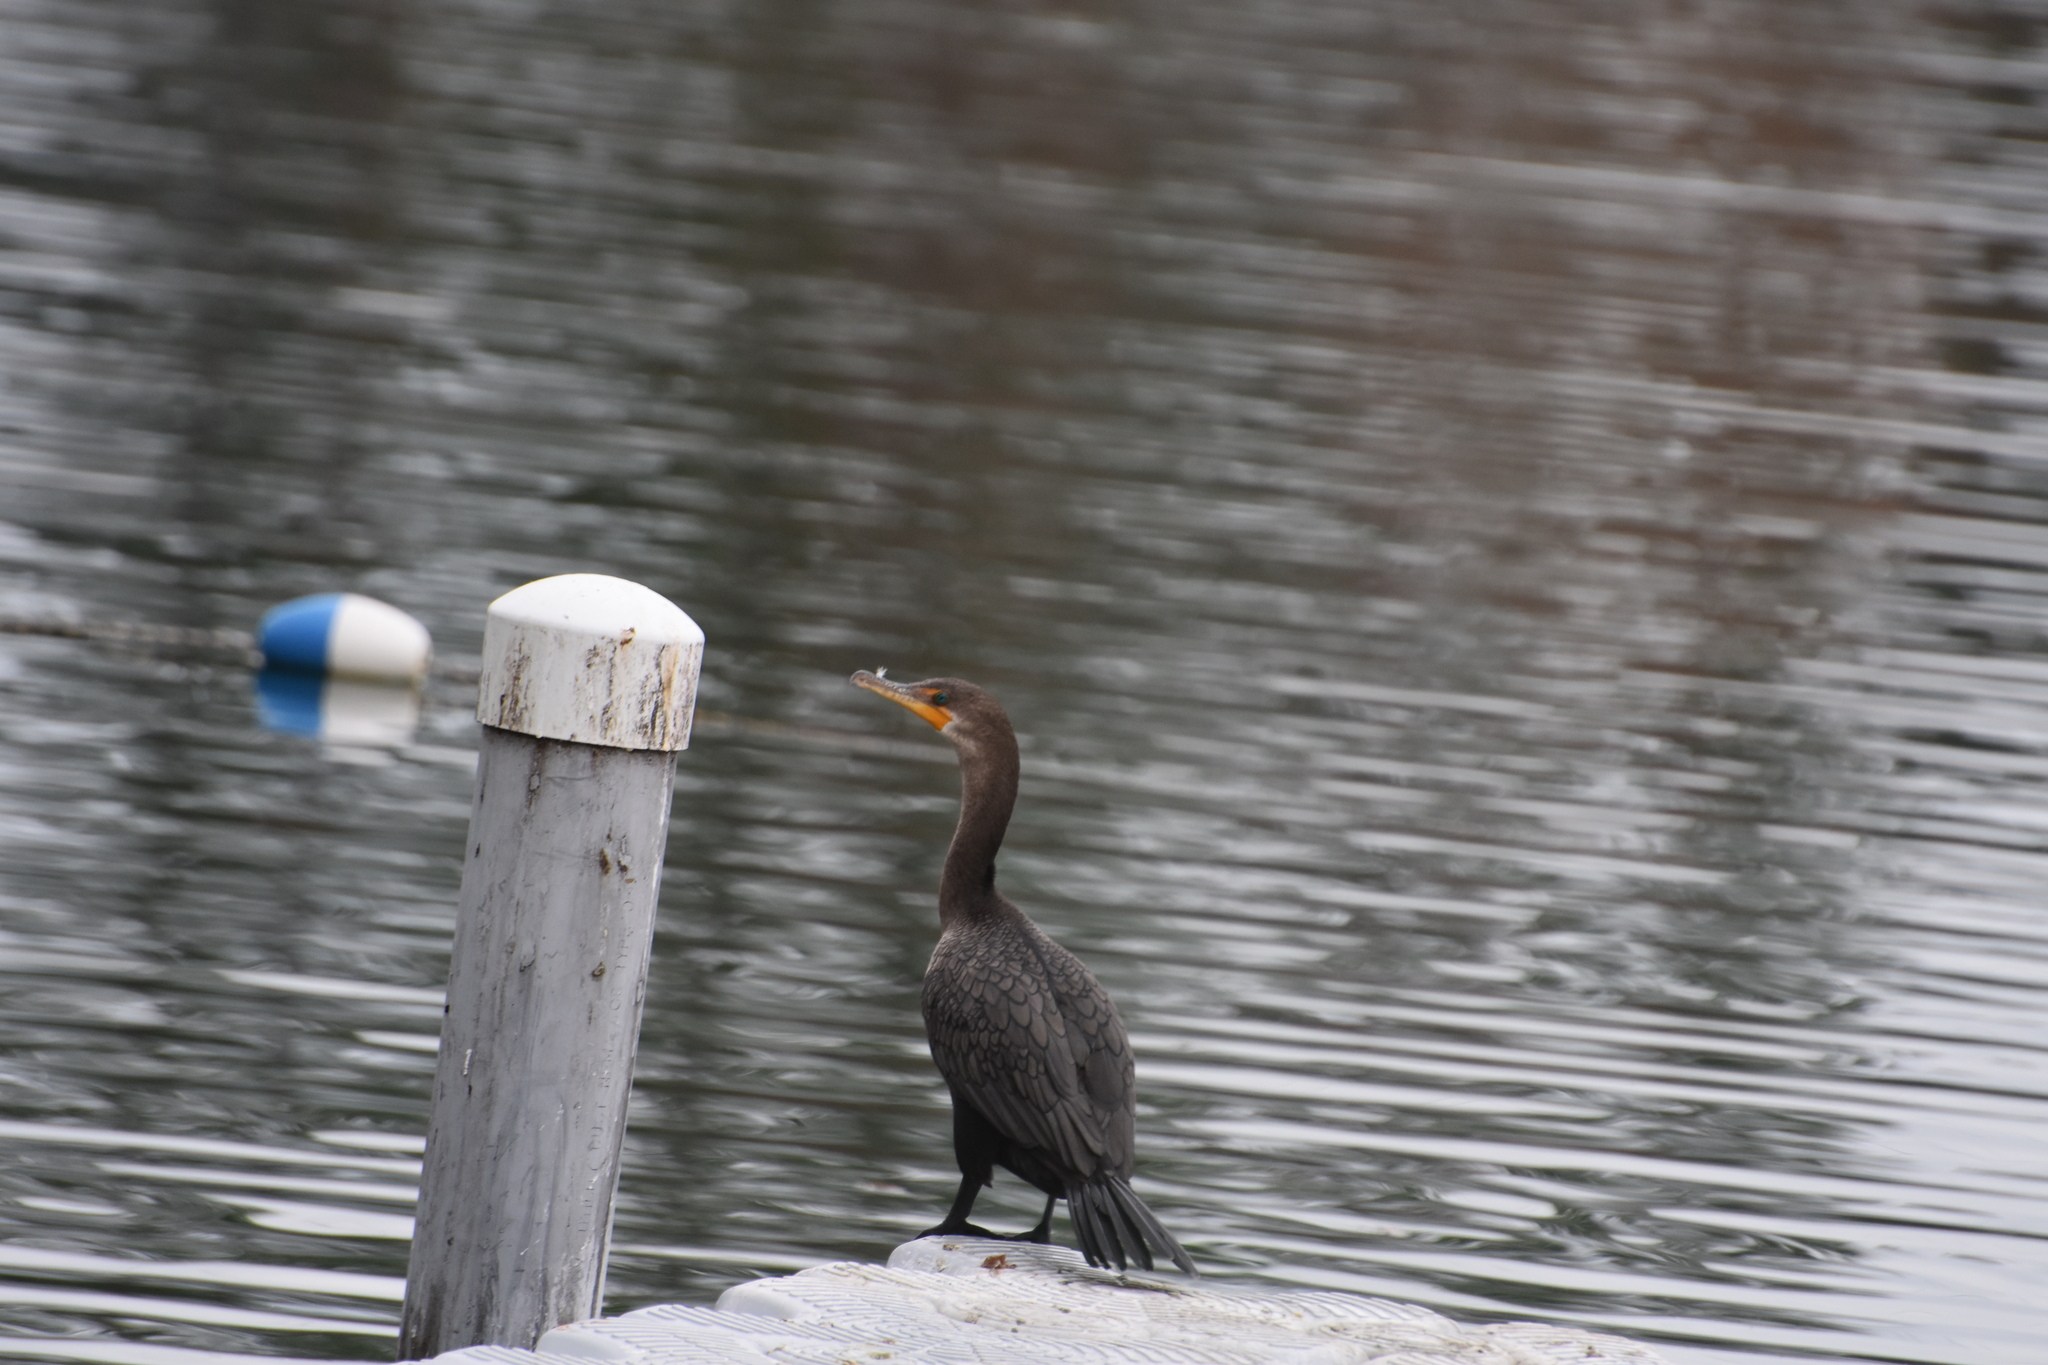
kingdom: Animalia
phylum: Chordata
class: Aves
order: Suliformes
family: Phalacrocoracidae
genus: Phalacrocorax
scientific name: Phalacrocorax auritus
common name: Double-crested cormorant
